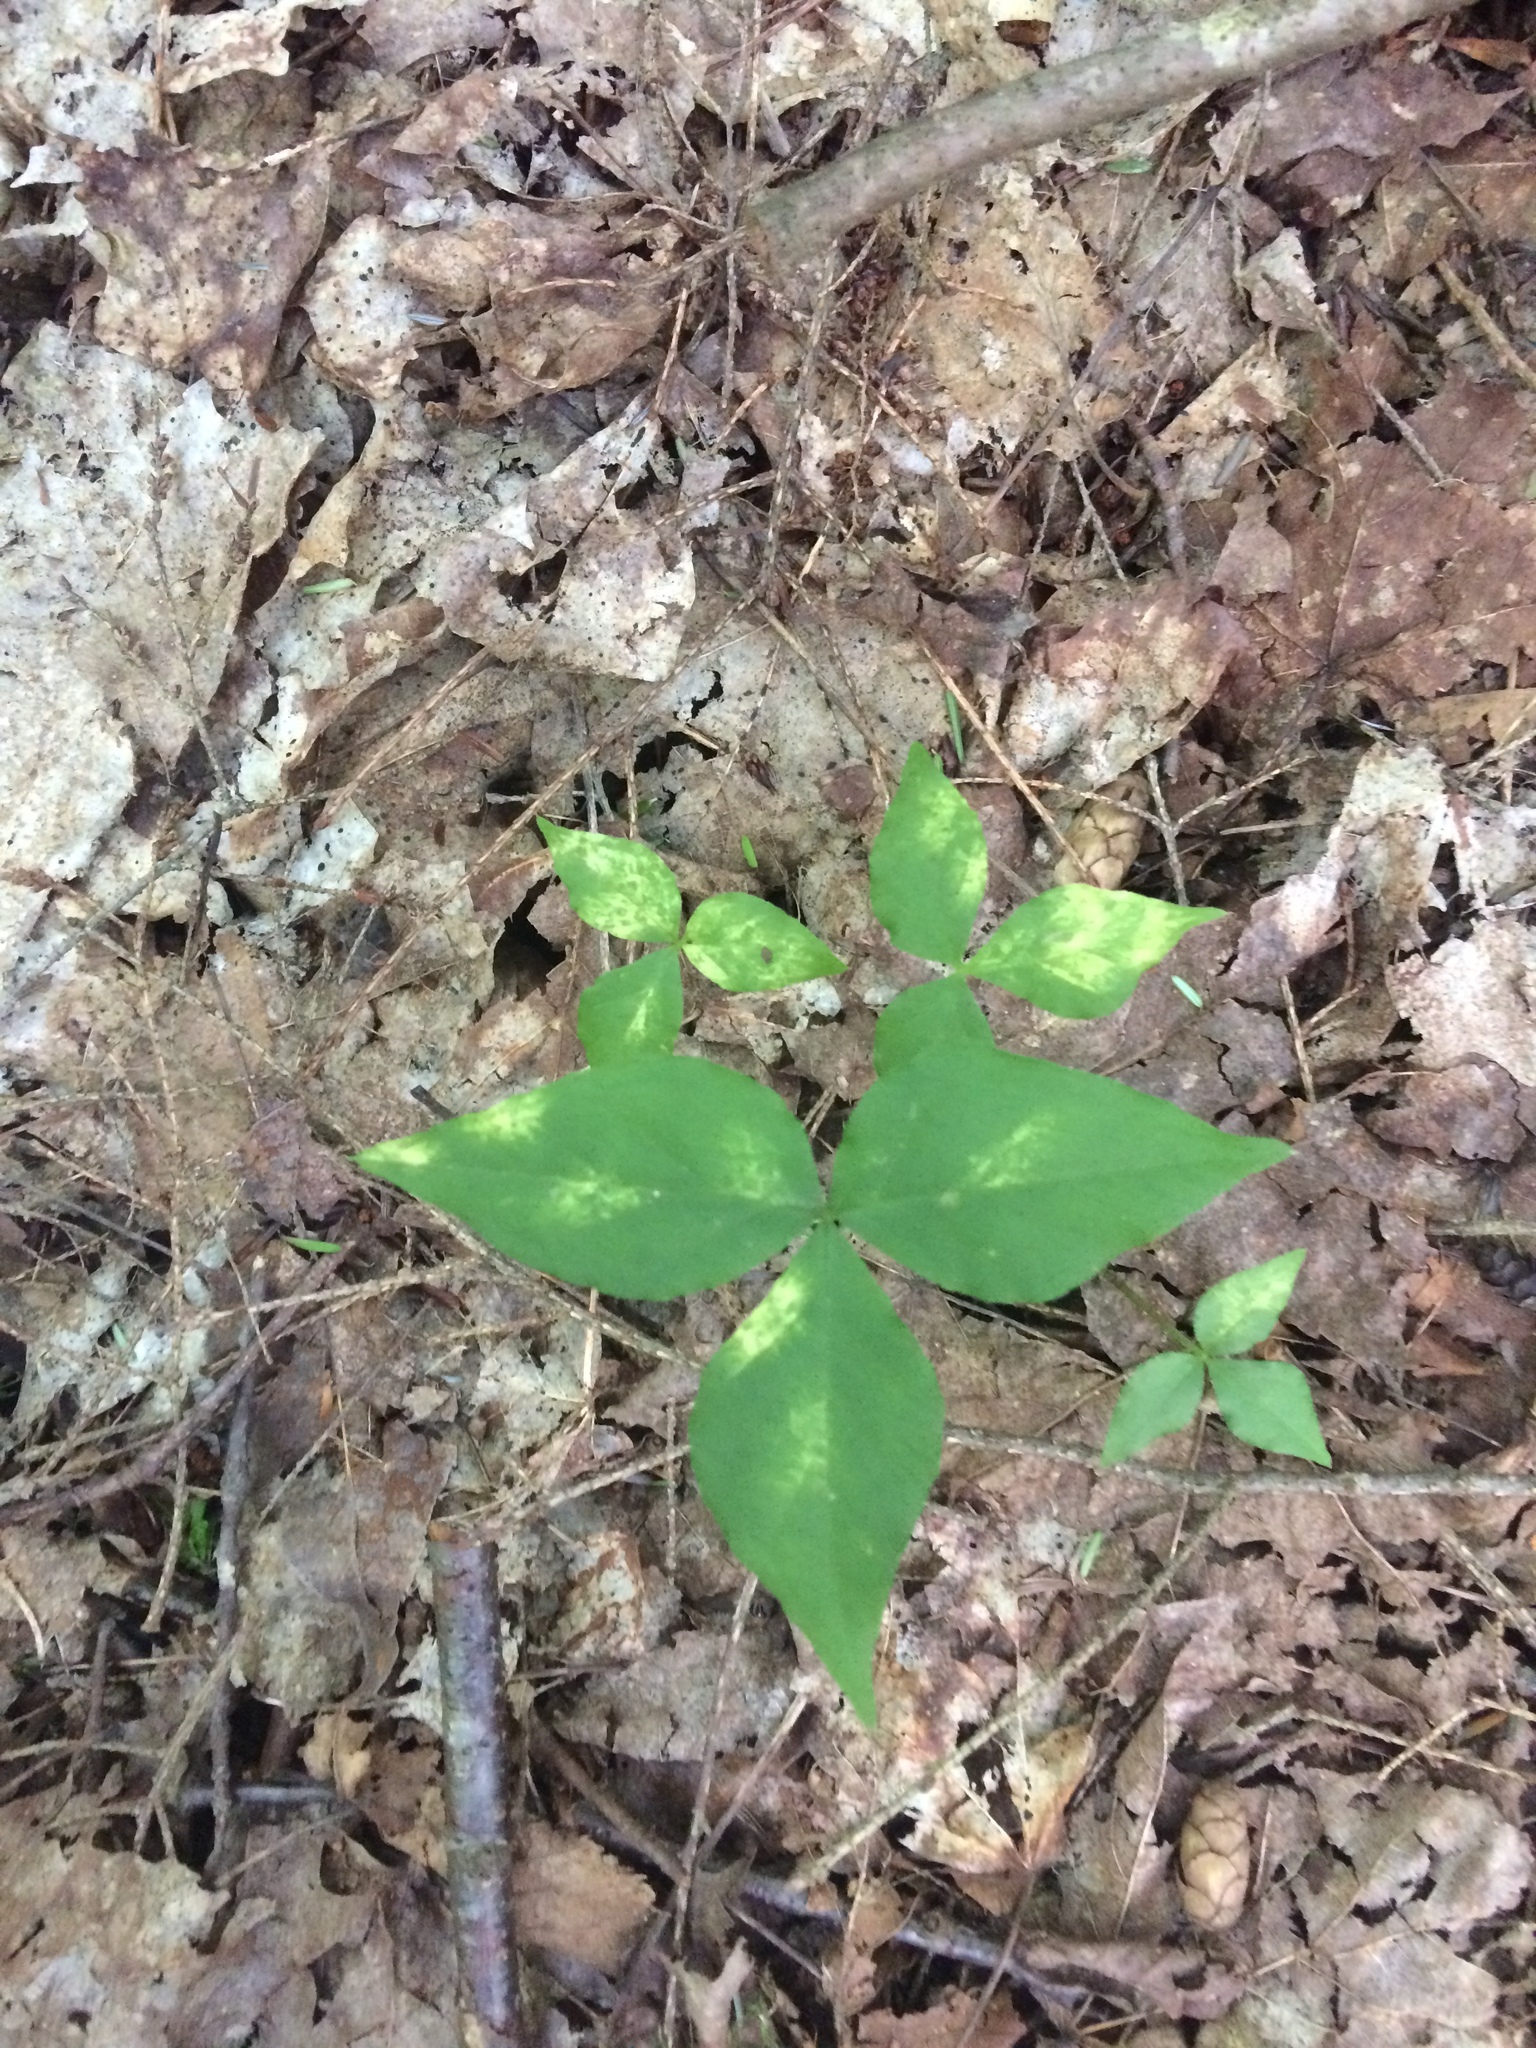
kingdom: Plantae
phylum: Tracheophyta
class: Liliopsida
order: Alismatales
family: Araceae
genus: Arisaema
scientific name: Arisaema triphyllum
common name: Jack-in-the-pulpit
